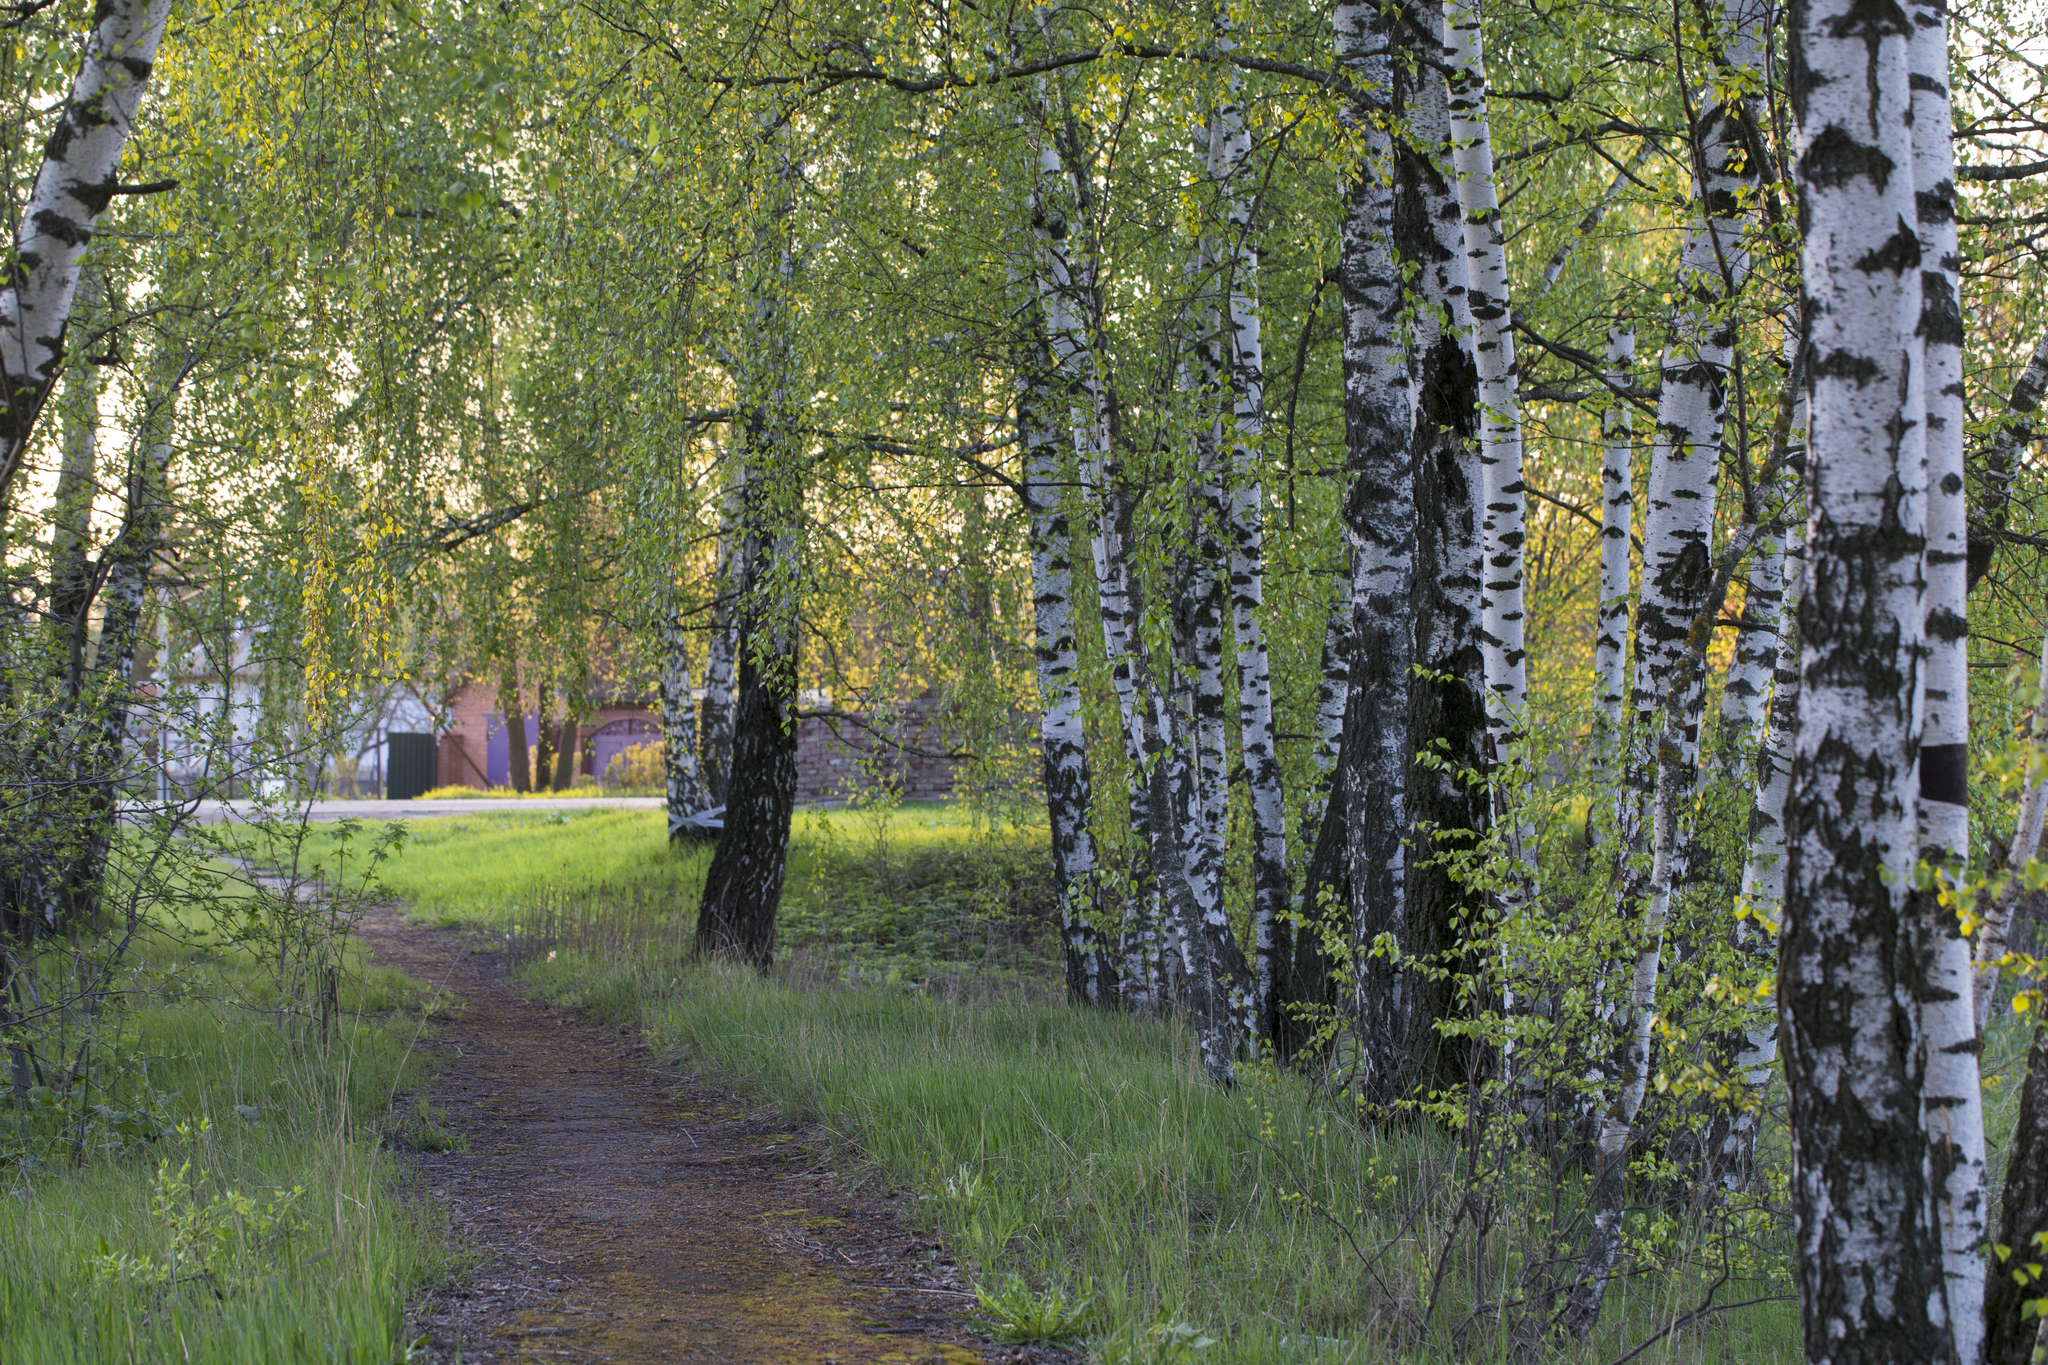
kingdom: Plantae
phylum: Tracheophyta
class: Magnoliopsida
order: Fagales
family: Betulaceae
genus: Betula
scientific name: Betula pendula
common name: Silver birch
